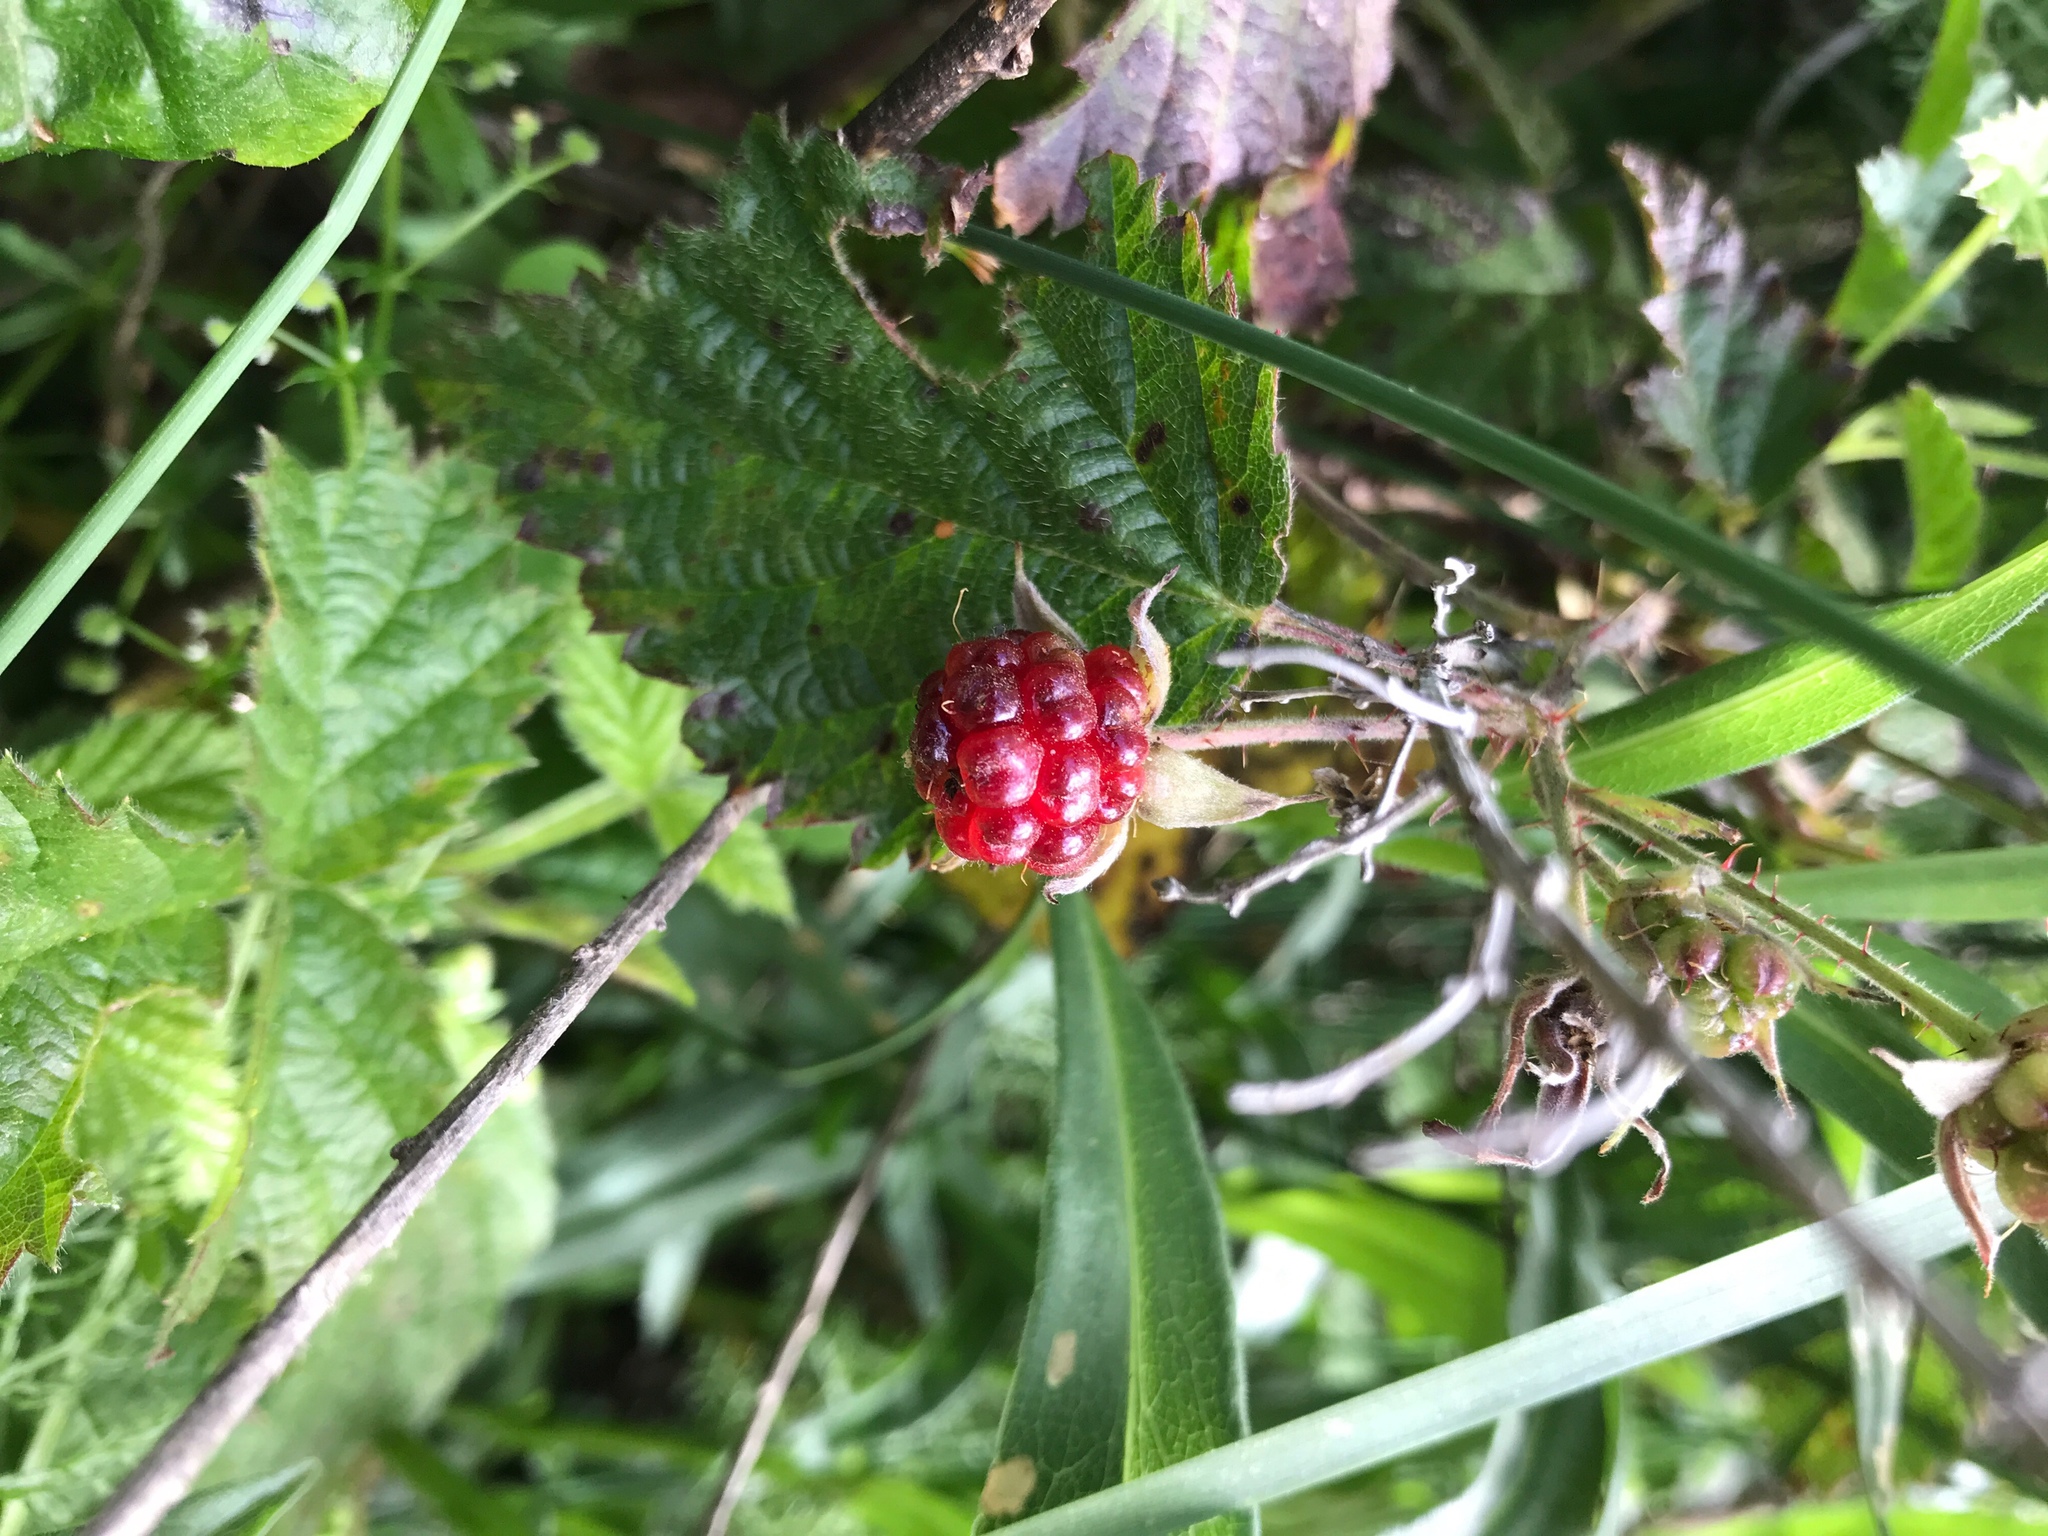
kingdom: Plantae
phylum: Tracheophyta
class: Magnoliopsida
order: Rosales
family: Rosaceae
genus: Rubus
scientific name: Rubus ursinus
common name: Pacific blackberry
